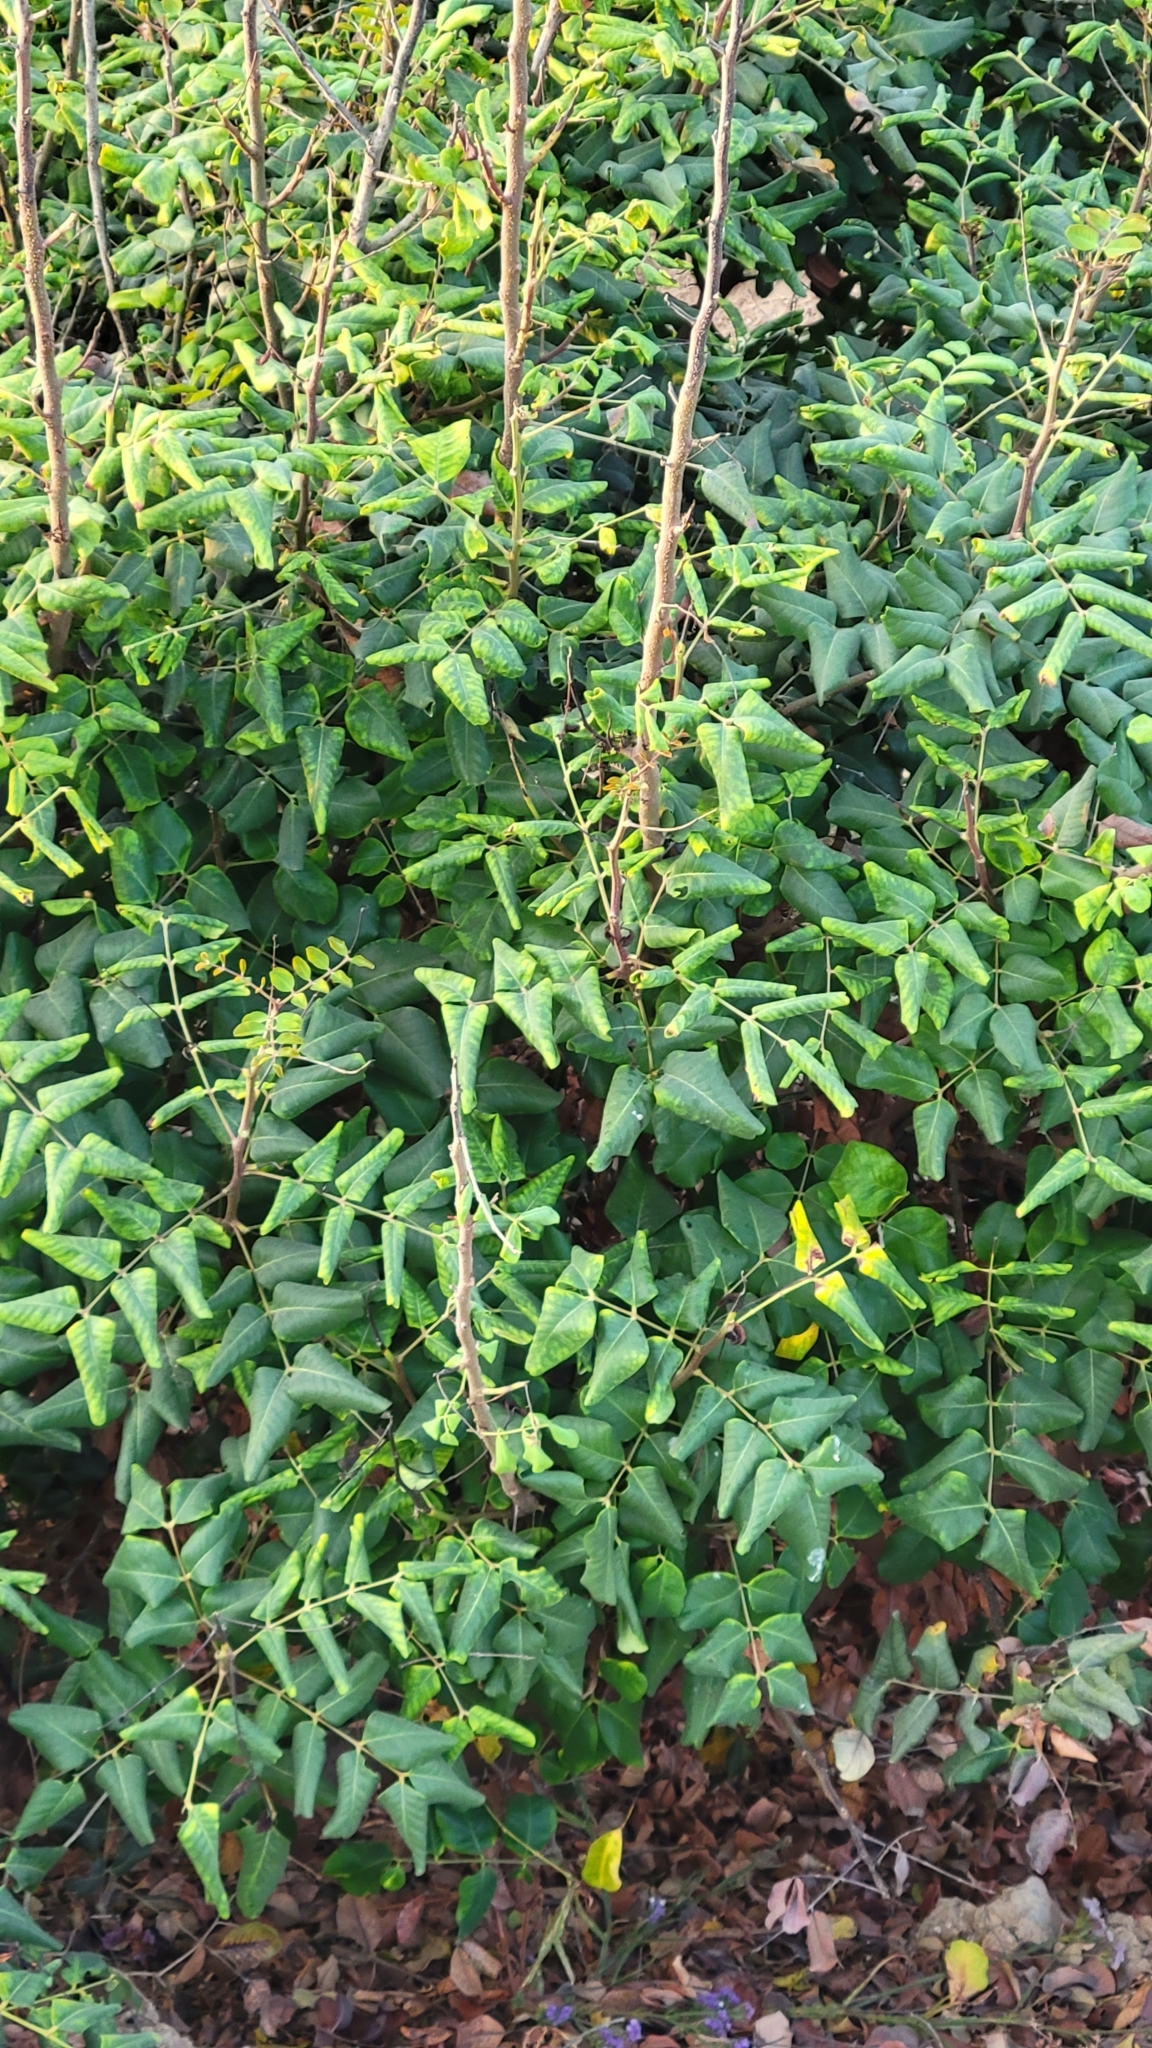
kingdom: Plantae
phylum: Tracheophyta
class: Magnoliopsida
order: Fabales
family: Fabaceae
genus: Ceratonia
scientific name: Ceratonia siliqua
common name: Carob
